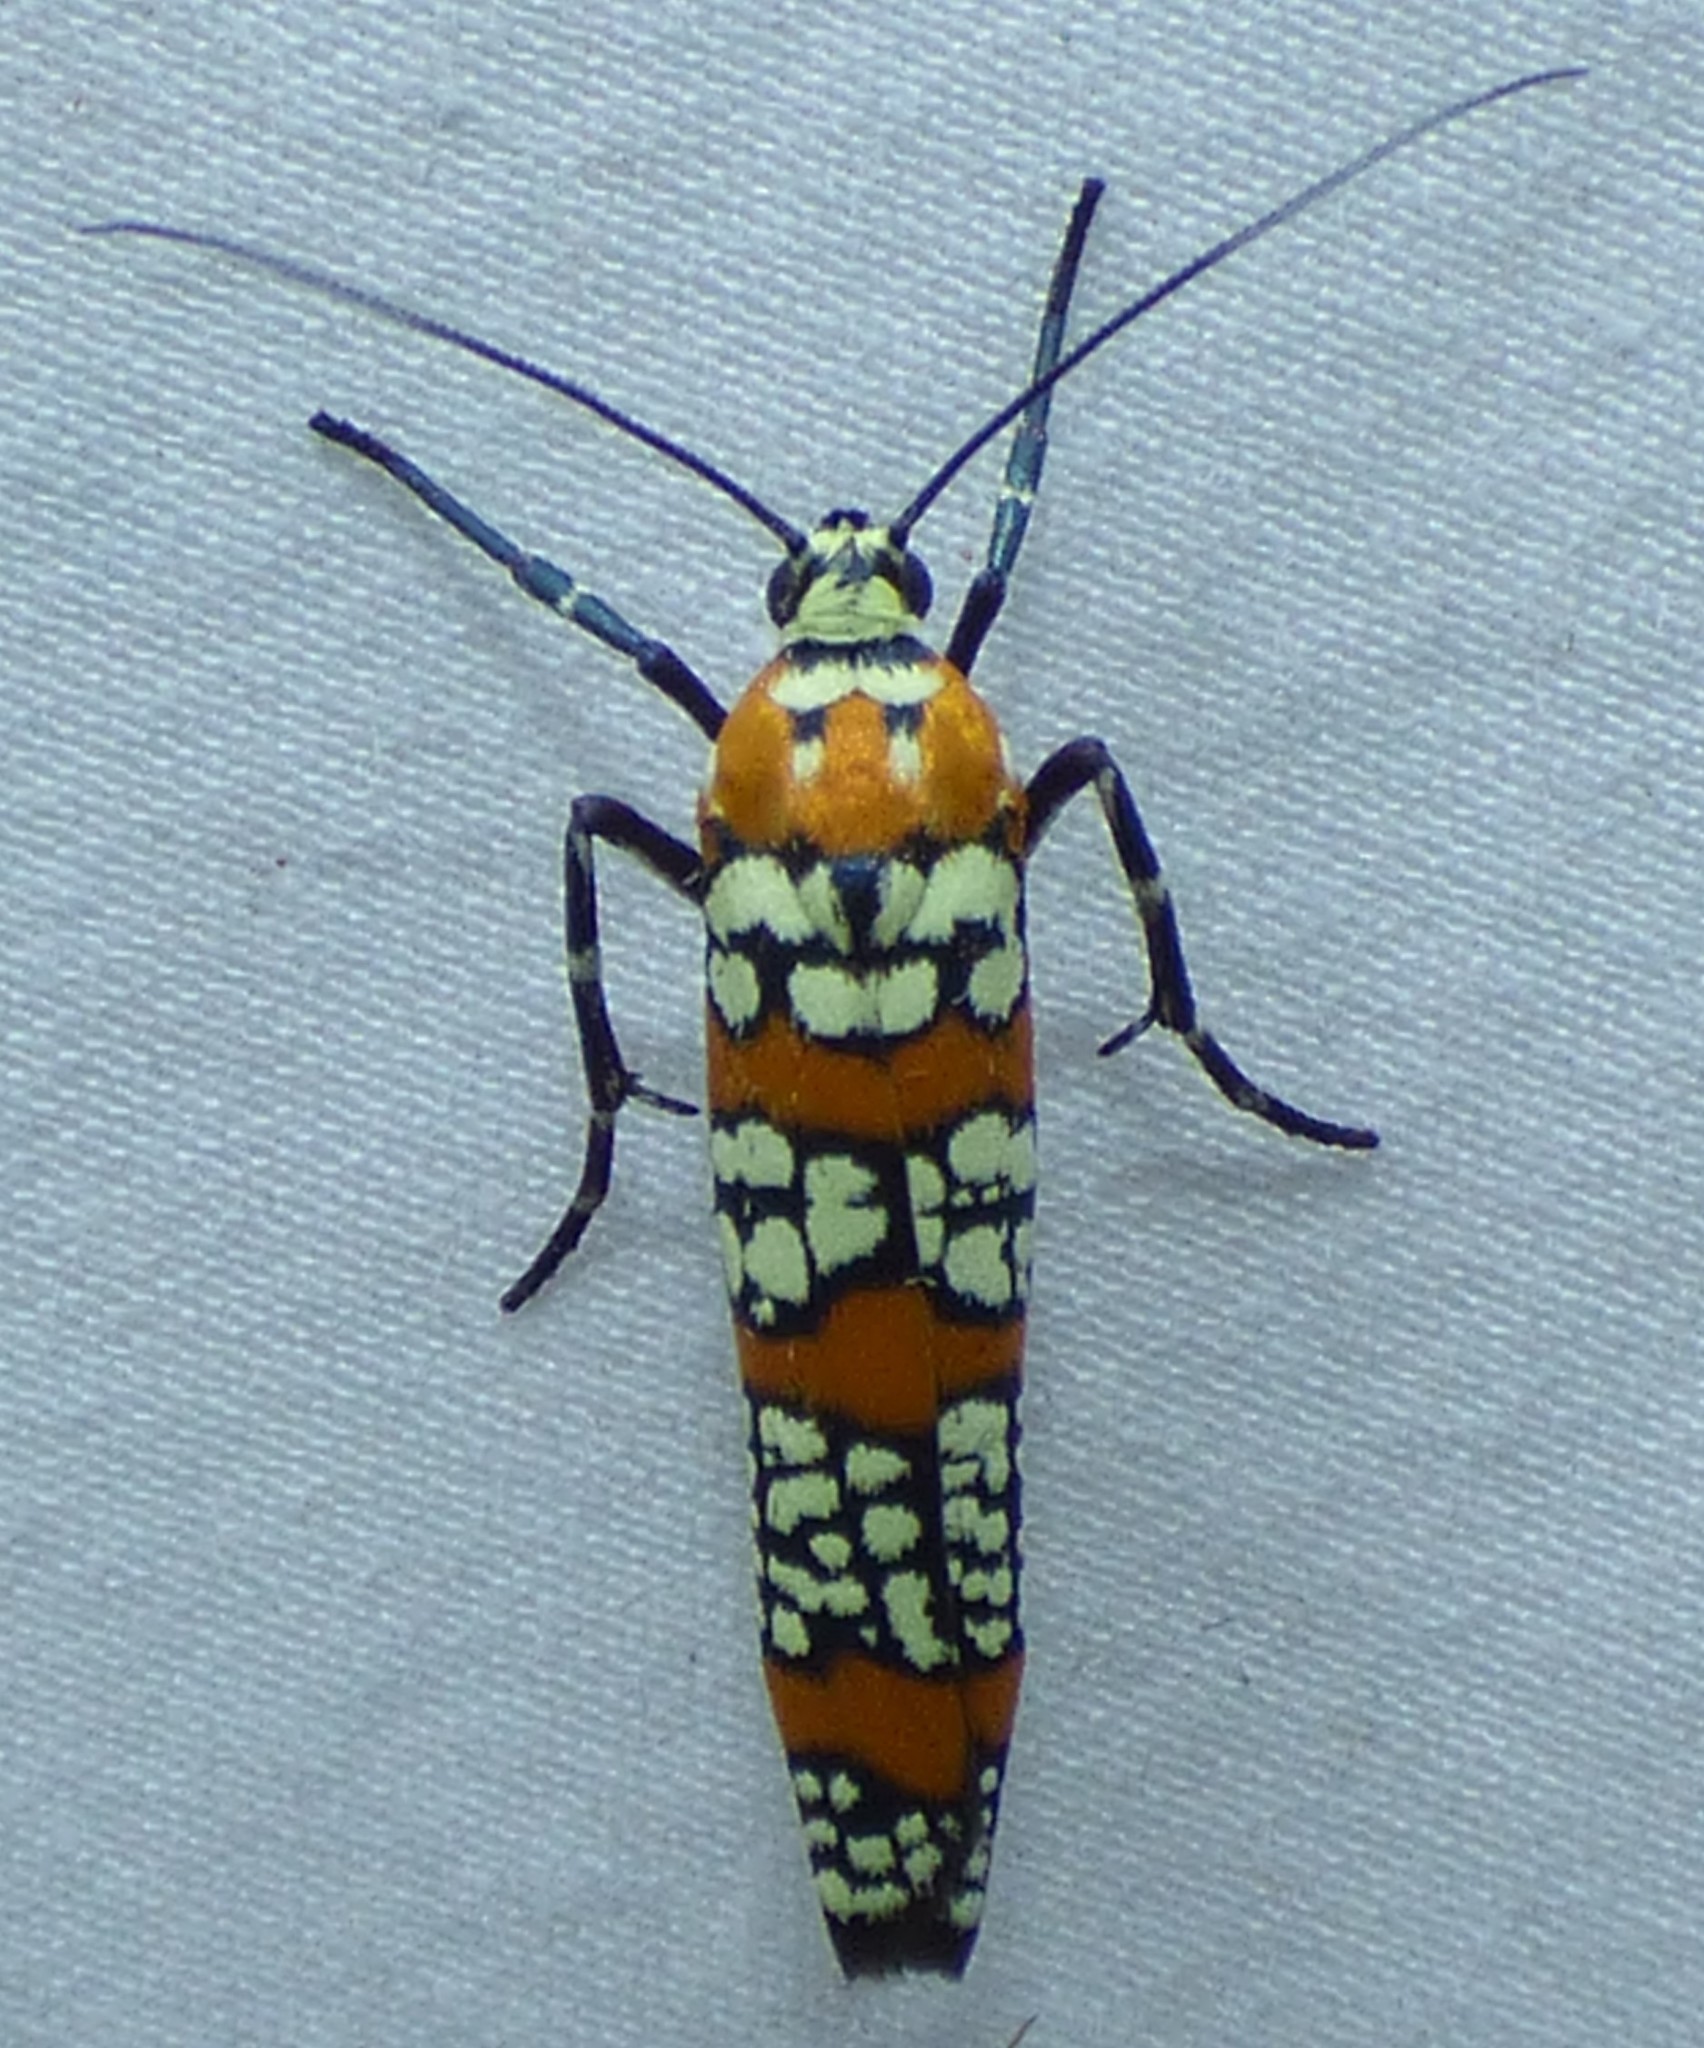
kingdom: Animalia
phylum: Arthropoda
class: Insecta
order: Lepidoptera
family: Attevidae
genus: Atteva
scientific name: Atteva punctella
